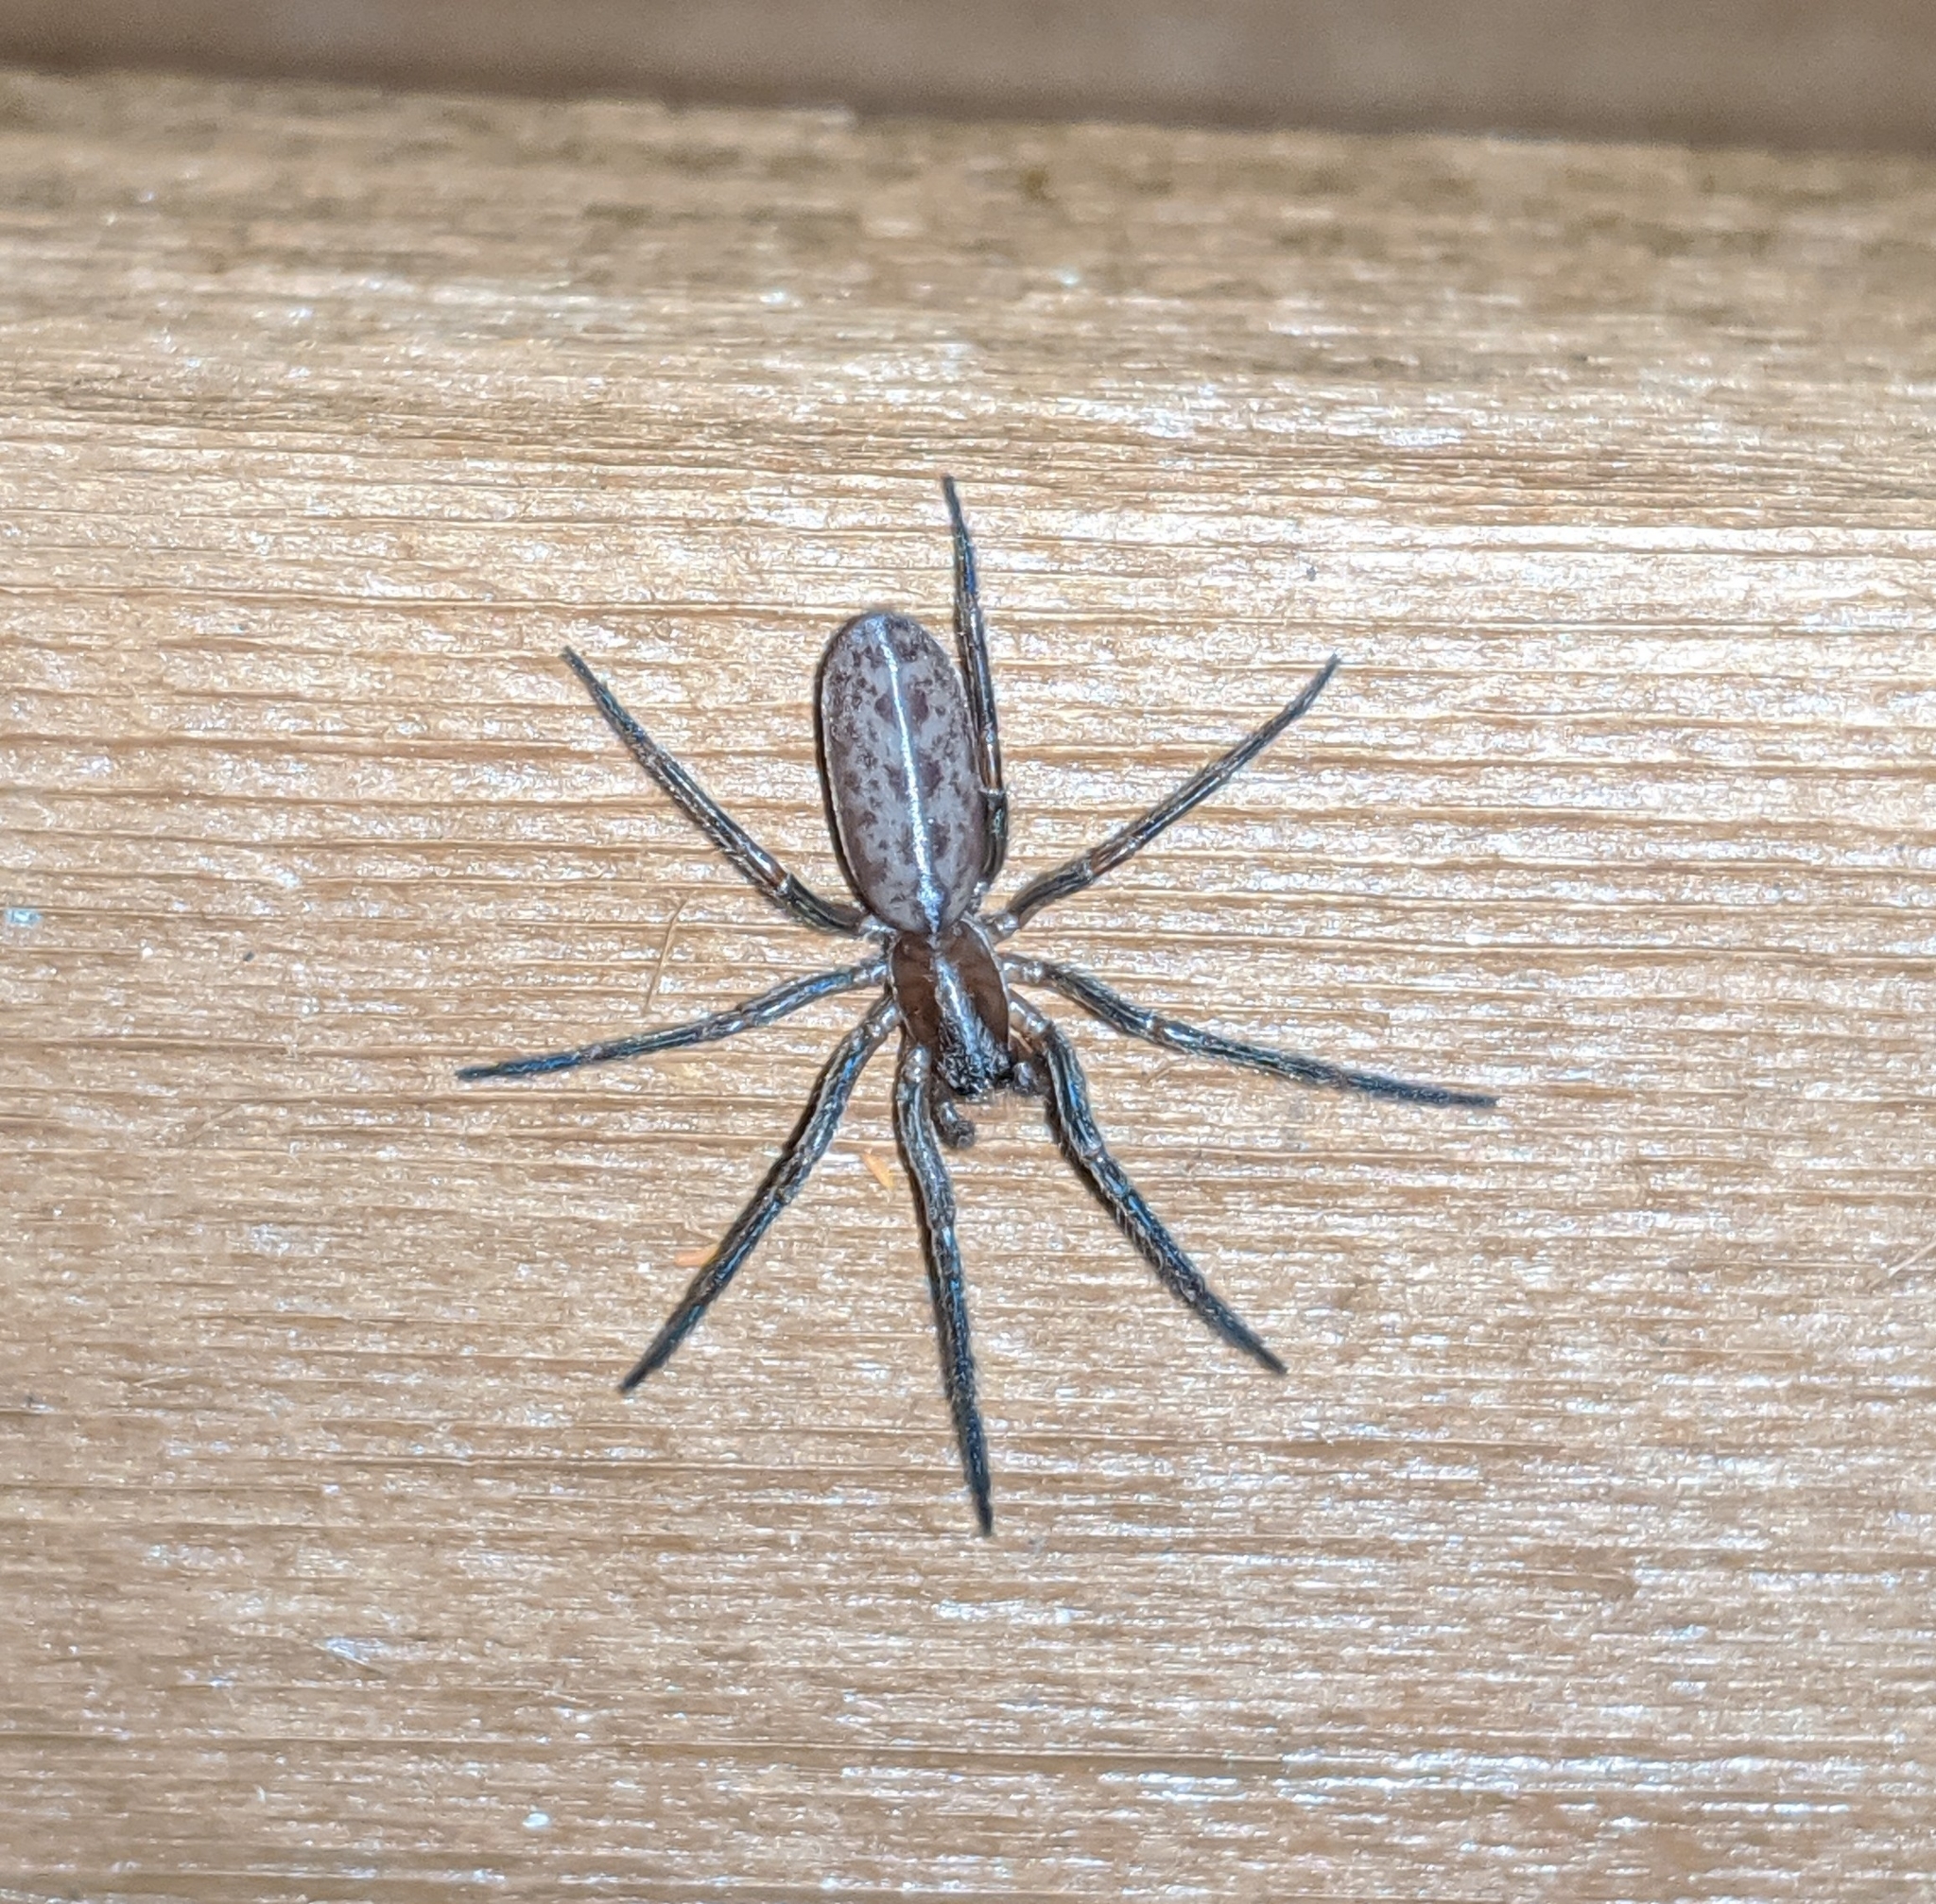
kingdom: Animalia
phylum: Arthropoda
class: Arachnida
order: Araneae
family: Segestriidae
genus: Segestria
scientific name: Segestria pacifica
